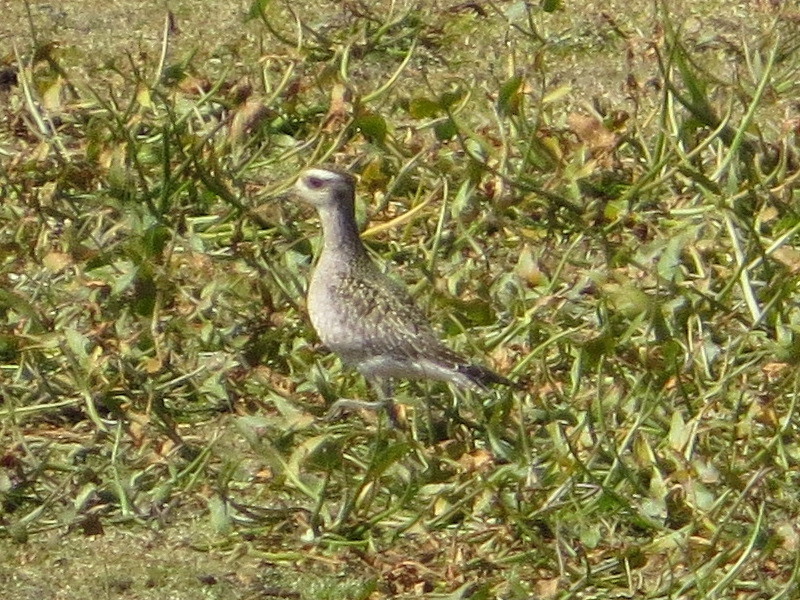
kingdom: Animalia
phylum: Chordata
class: Aves
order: Charadriiformes
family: Charadriidae
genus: Pluvialis
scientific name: Pluvialis dominica
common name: American golden plover
